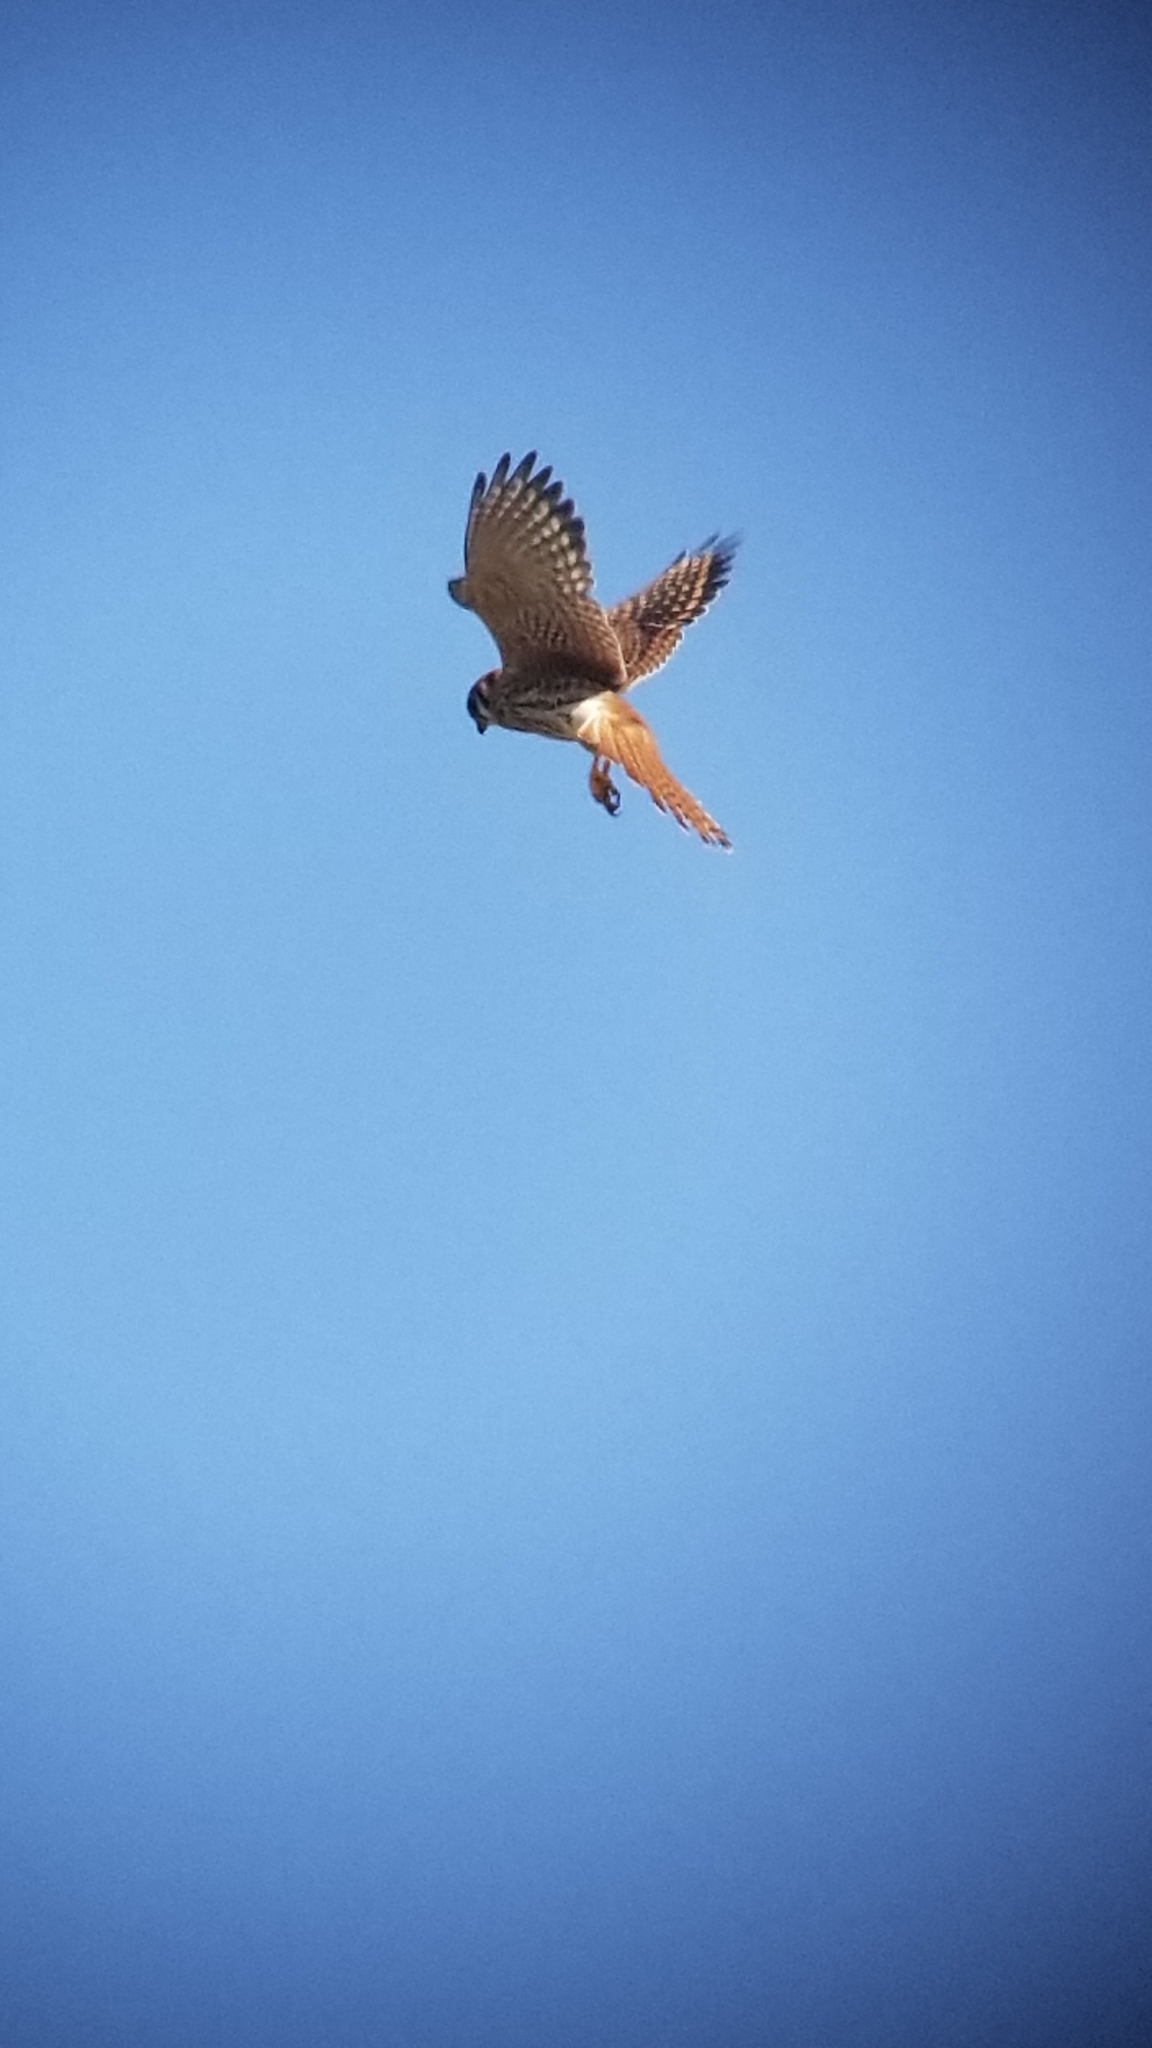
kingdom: Animalia
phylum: Chordata
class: Aves
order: Falconiformes
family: Falconidae
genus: Falco
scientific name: Falco sparverius
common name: American kestrel
